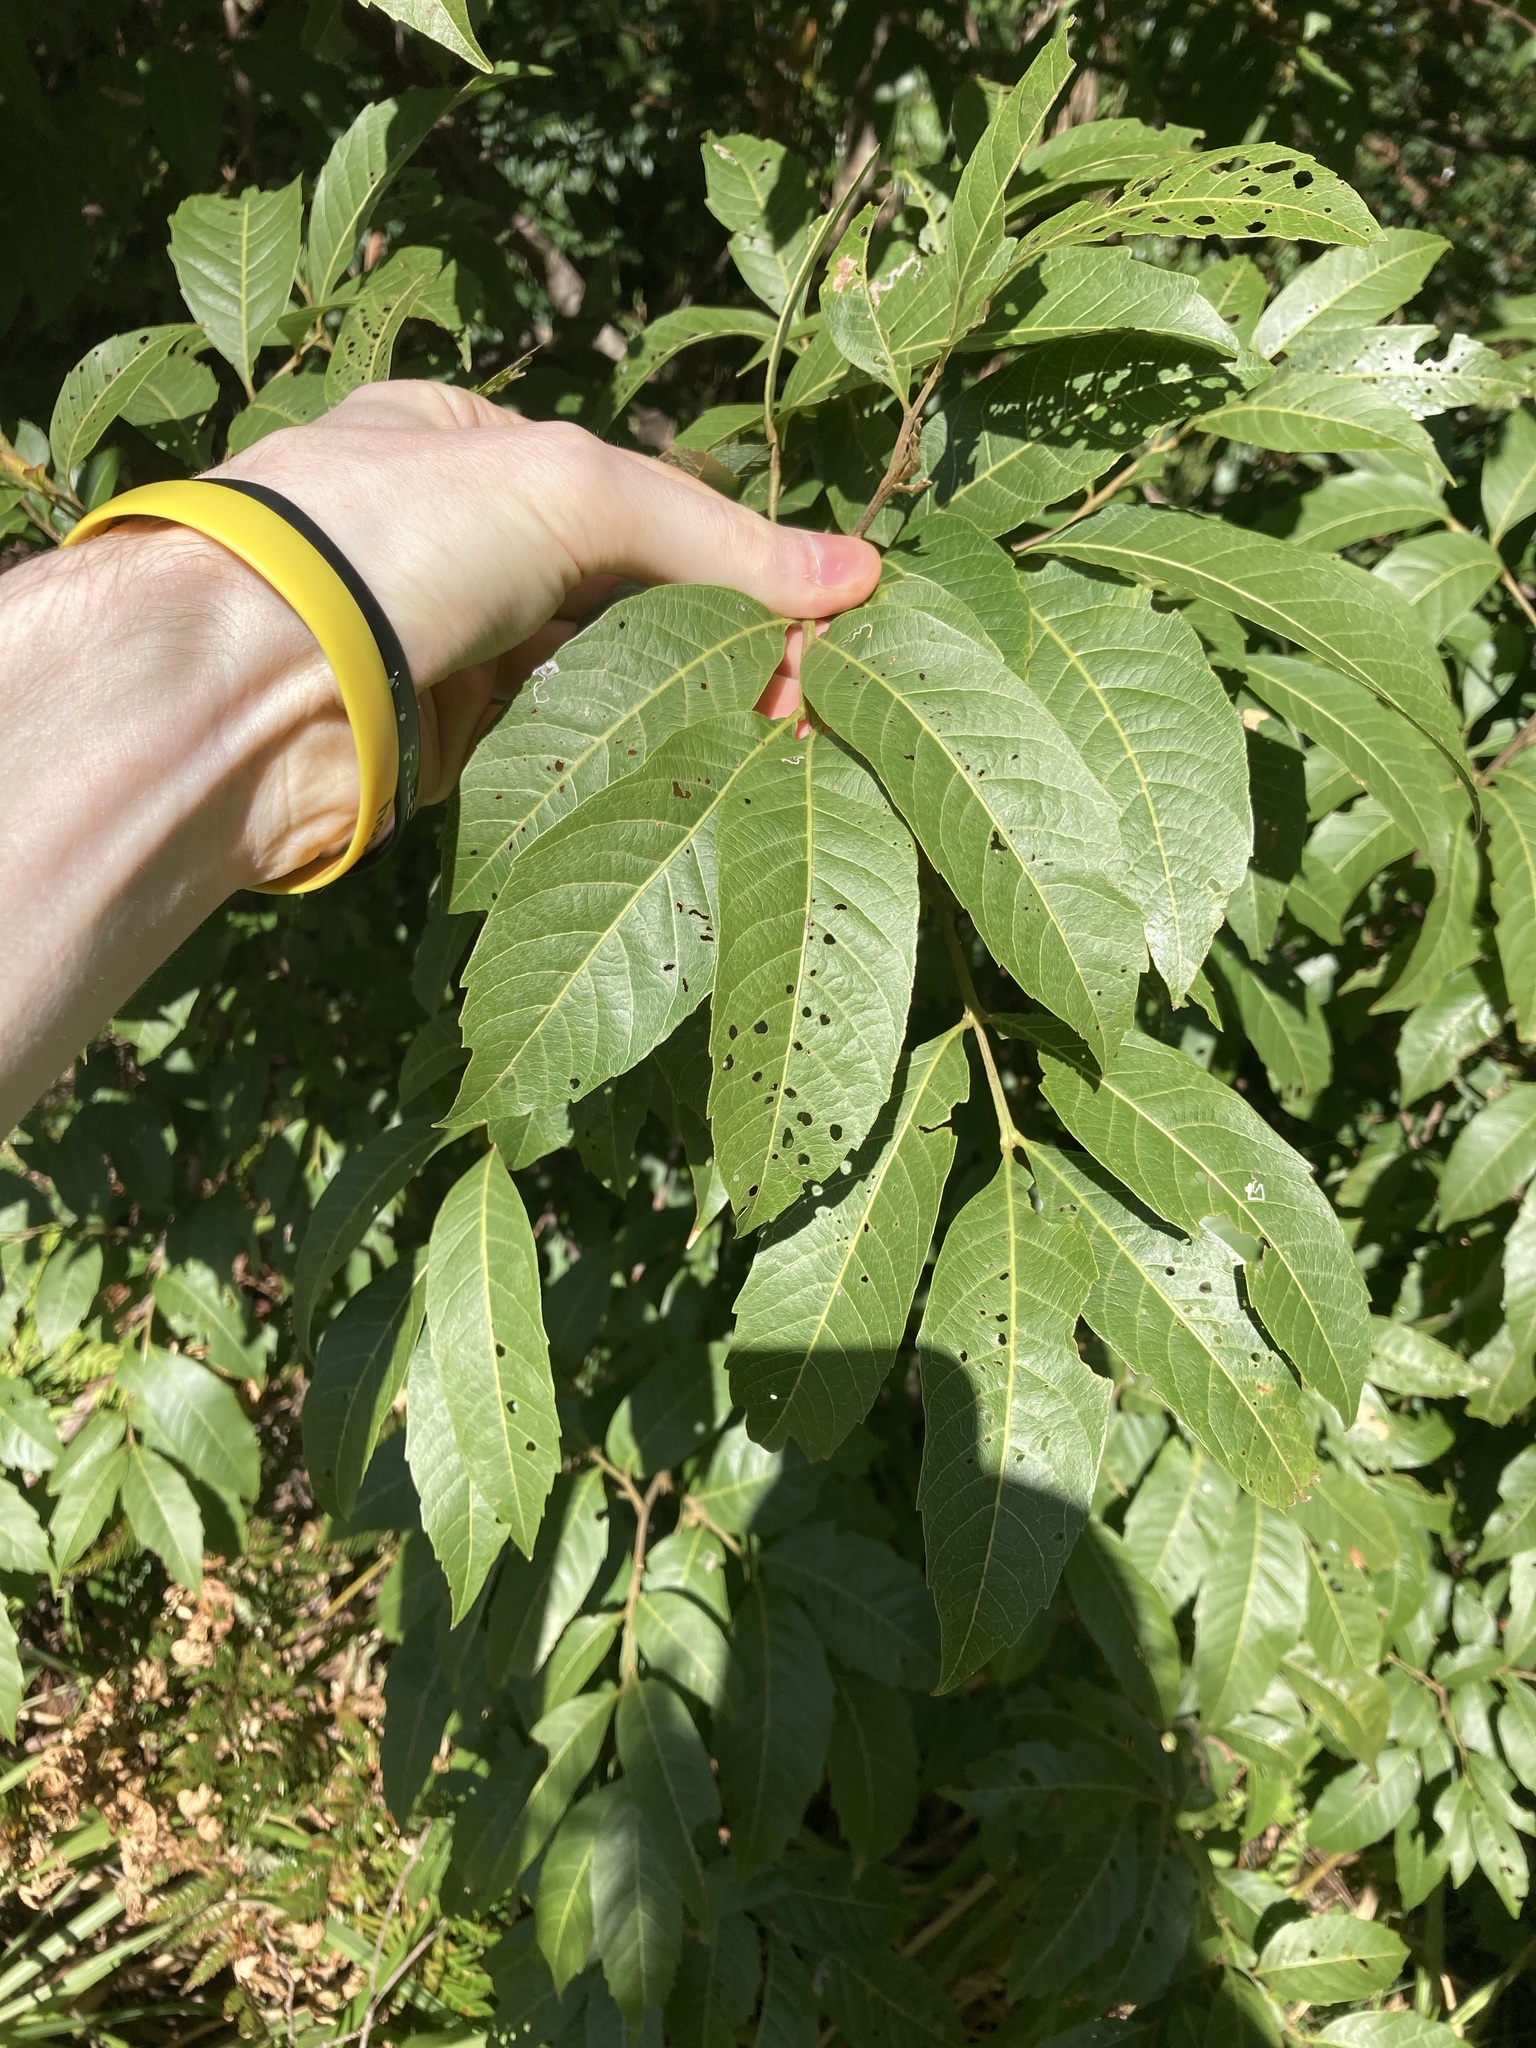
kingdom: Plantae
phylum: Tracheophyta
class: Magnoliopsida
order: Sapindales
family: Sapindaceae
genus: Alectryon
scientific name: Alectryon subcinereus
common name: Wild quince
